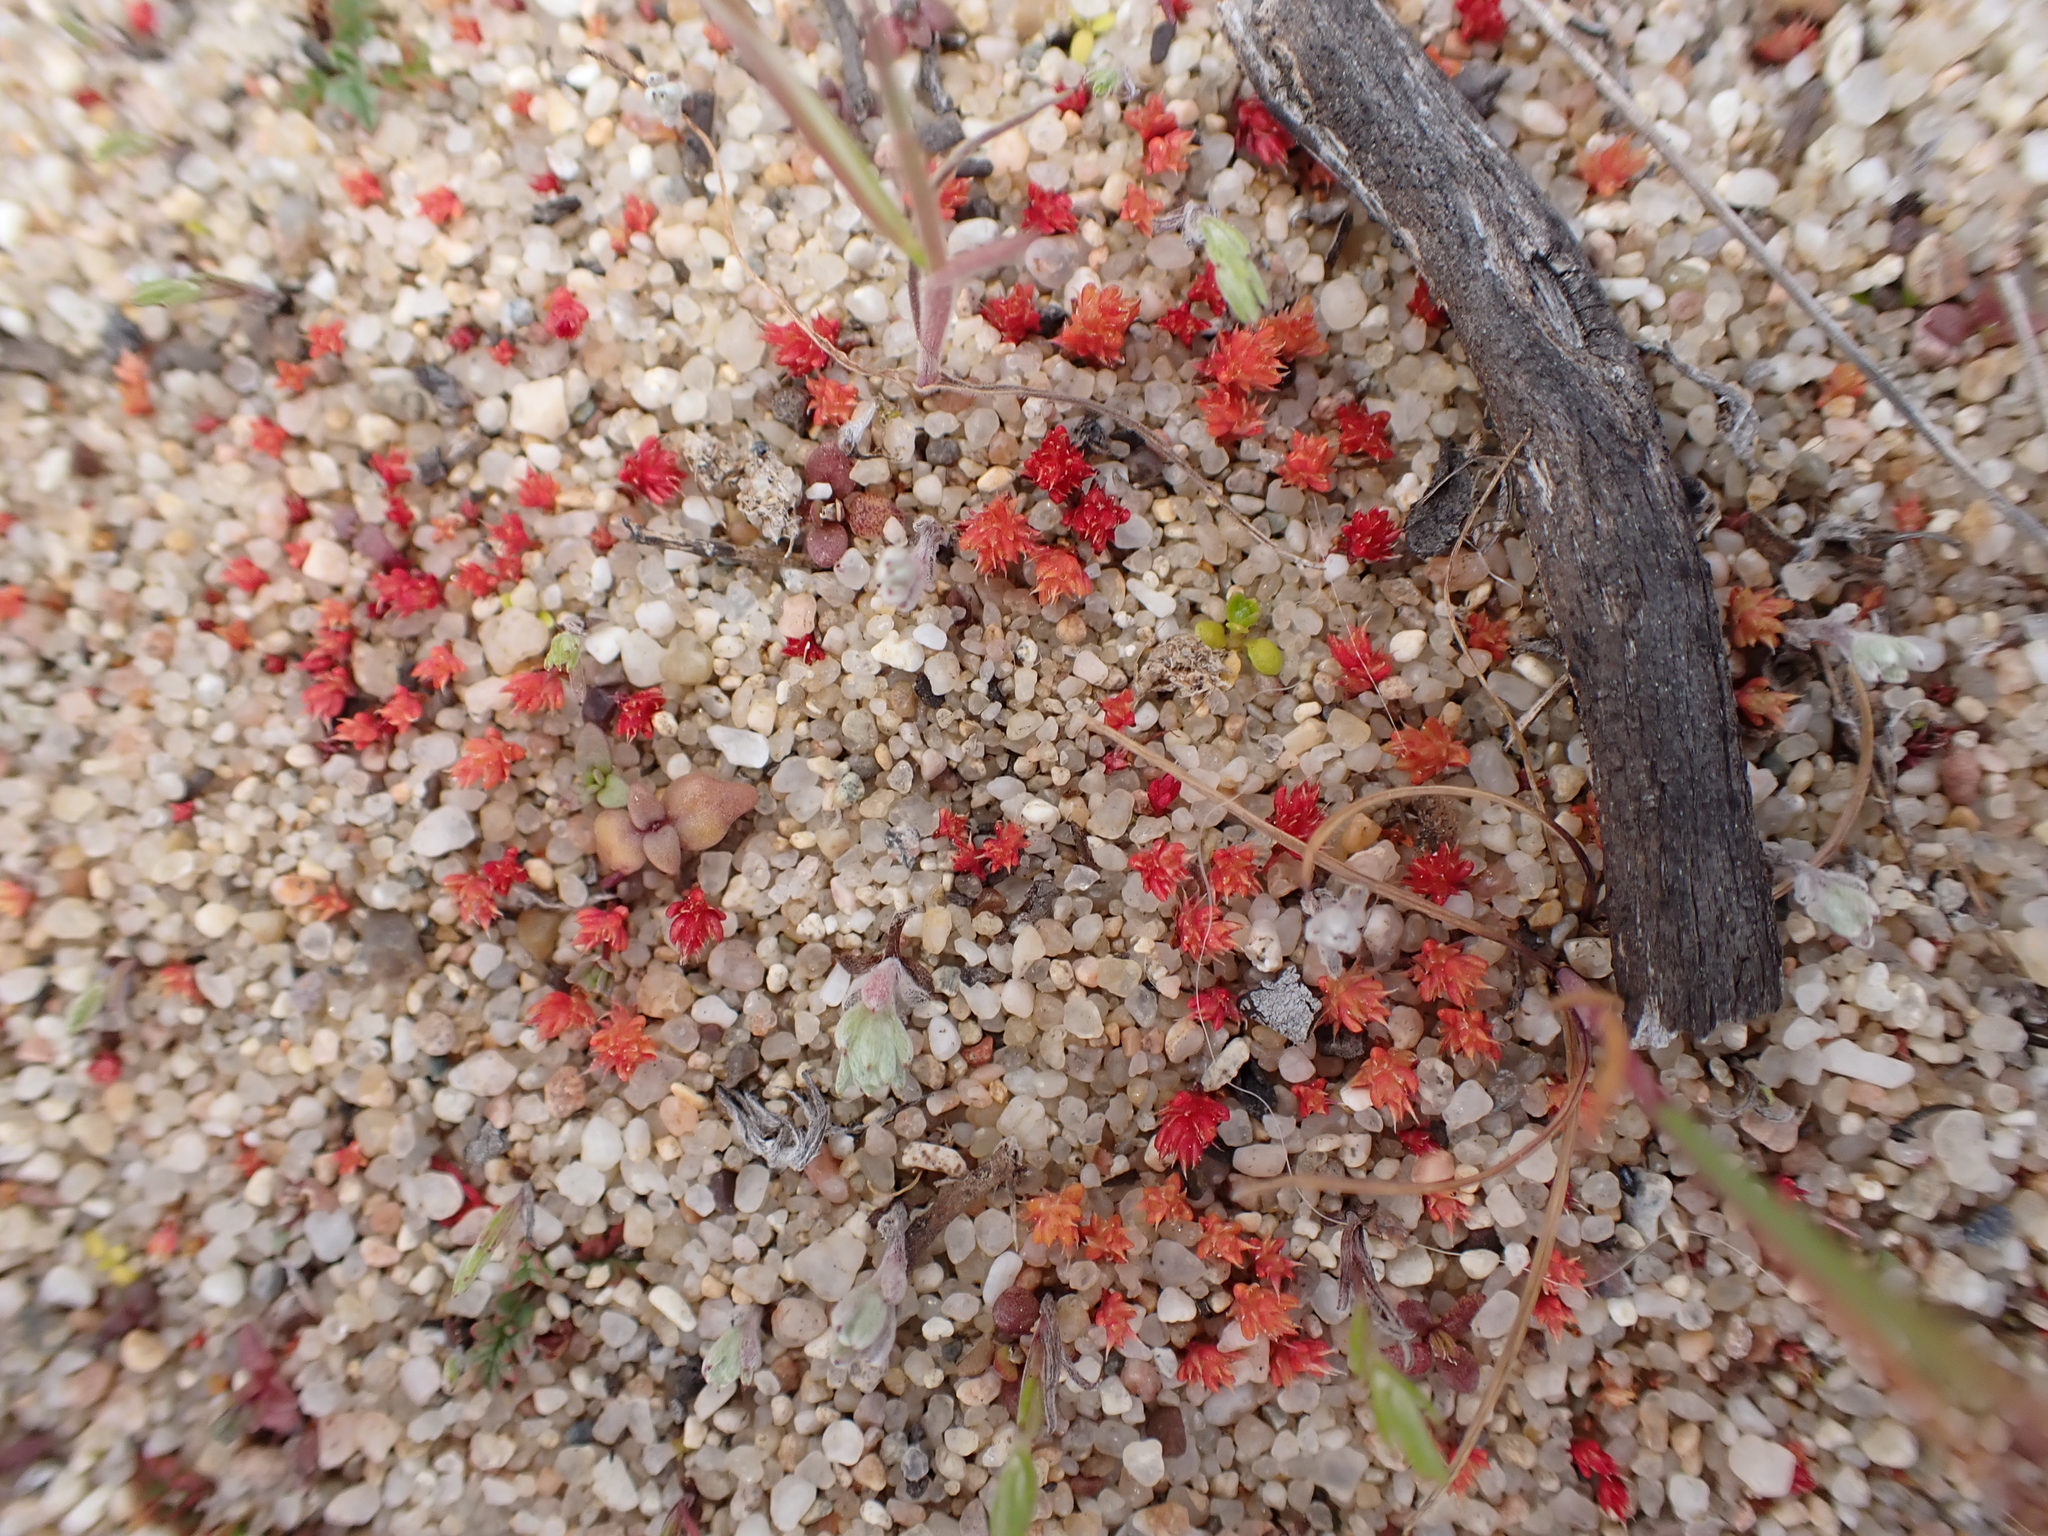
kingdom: Plantae
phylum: Tracheophyta
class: Magnoliopsida
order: Saxifragales
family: Crassulaceae
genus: Crassula
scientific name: Crassula tillaea
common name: Mossy stonecrop
